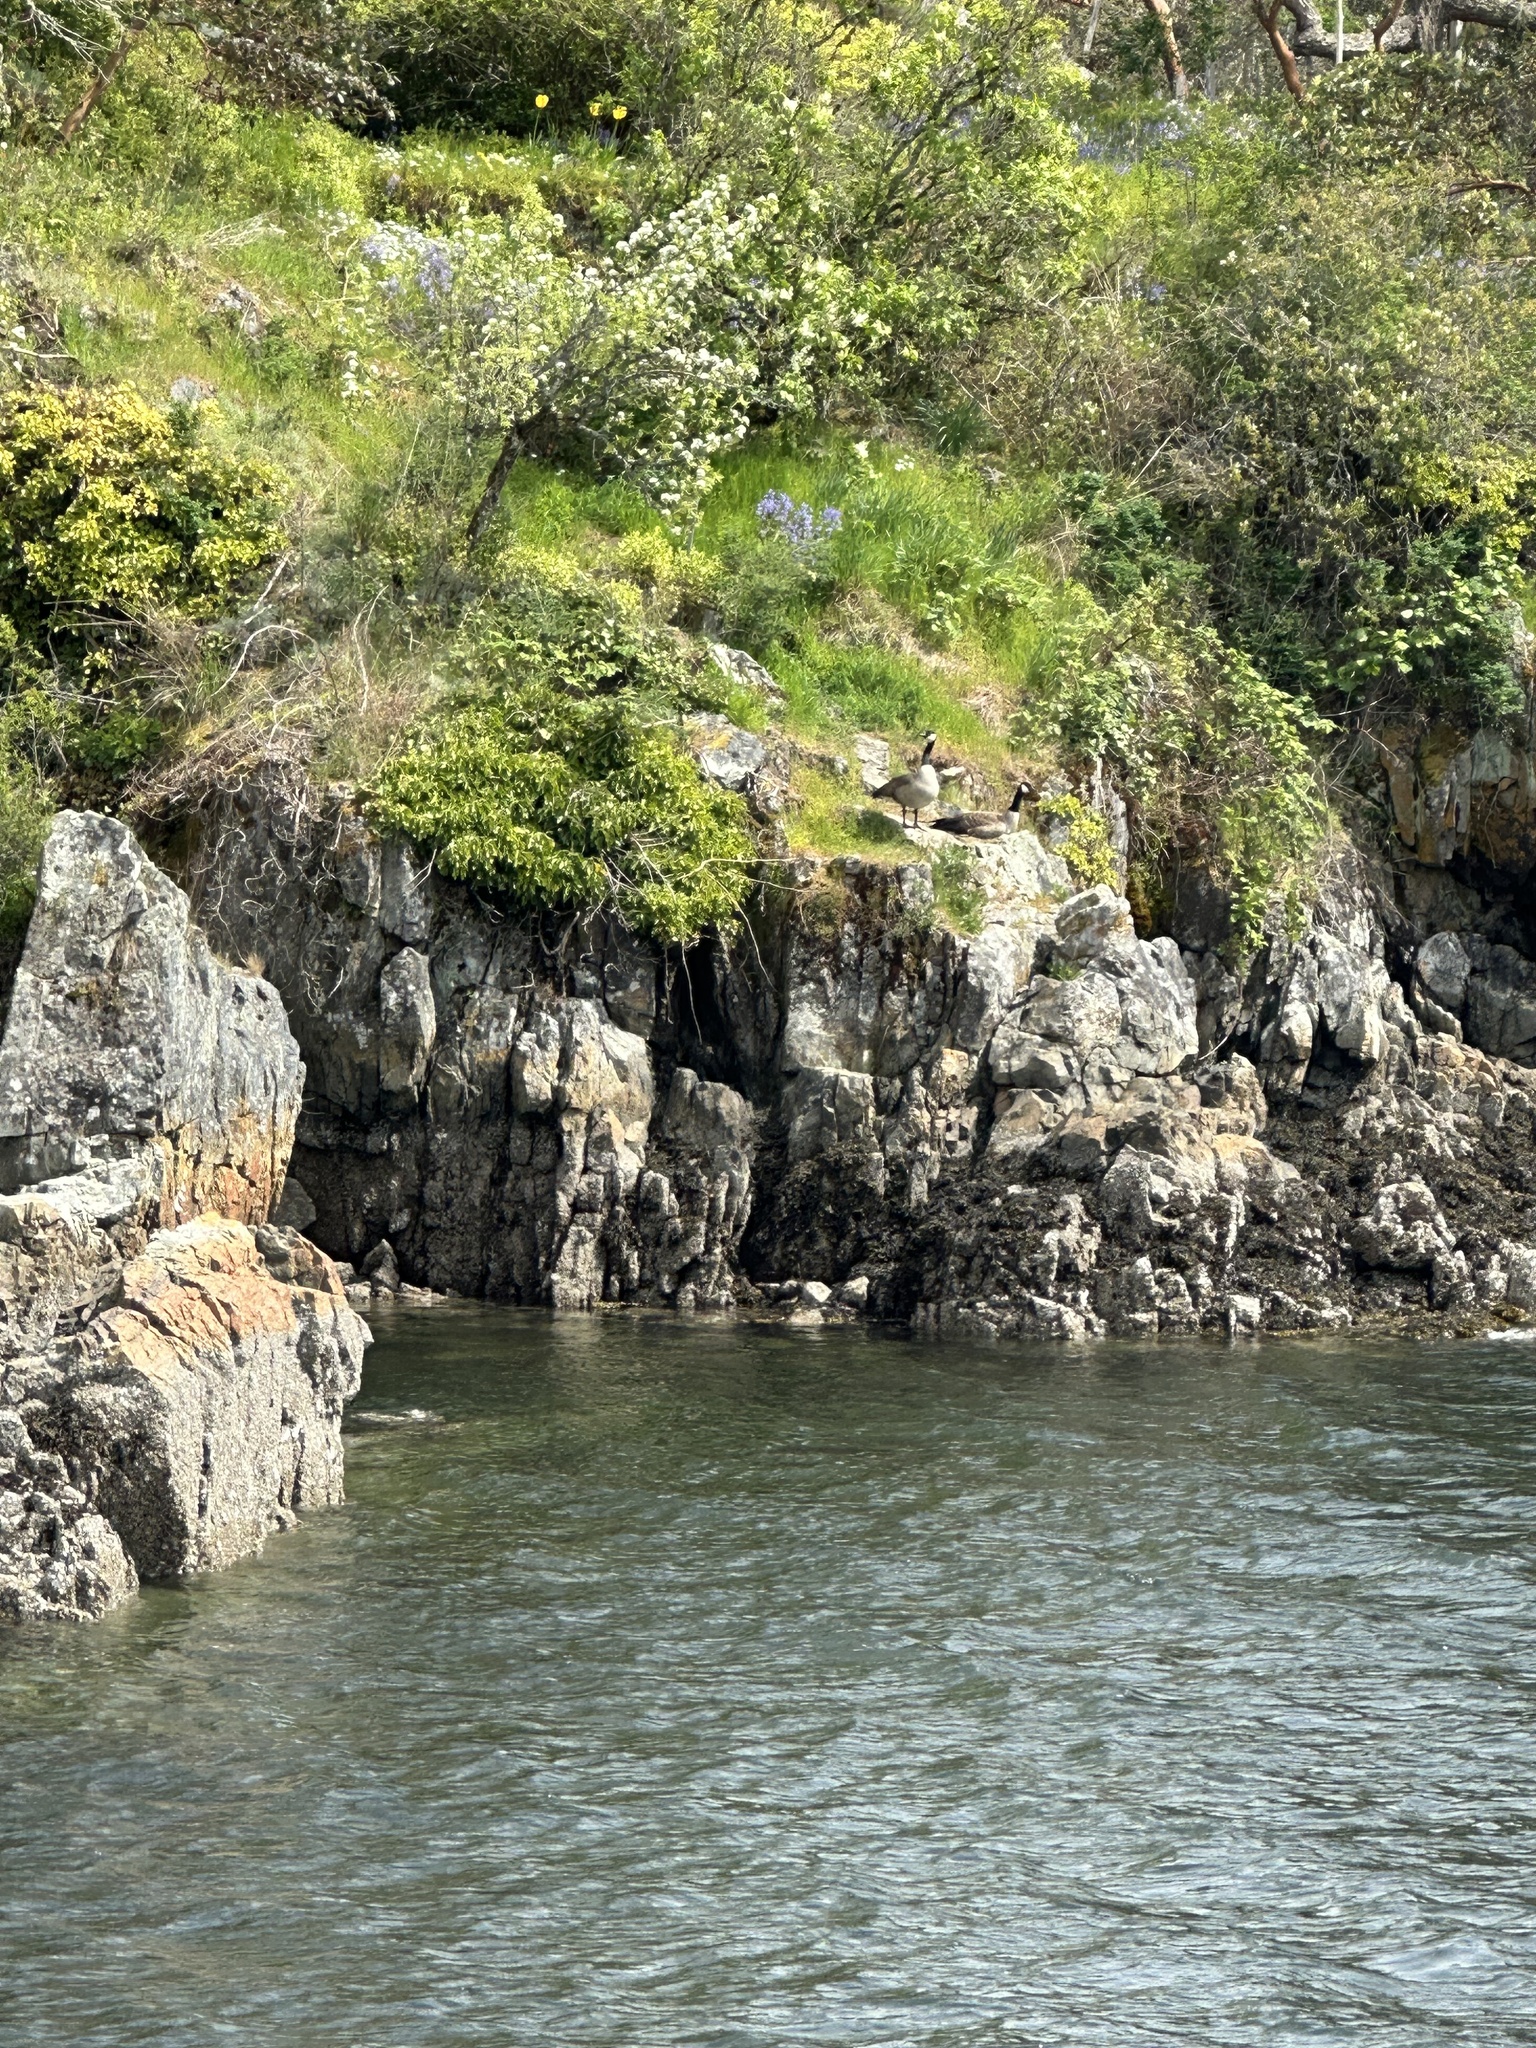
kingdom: Animalia
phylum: Chordata
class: Aves
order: Anseriformes
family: Anatidae
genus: Branta
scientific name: Branta canadensis
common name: Canada goose
